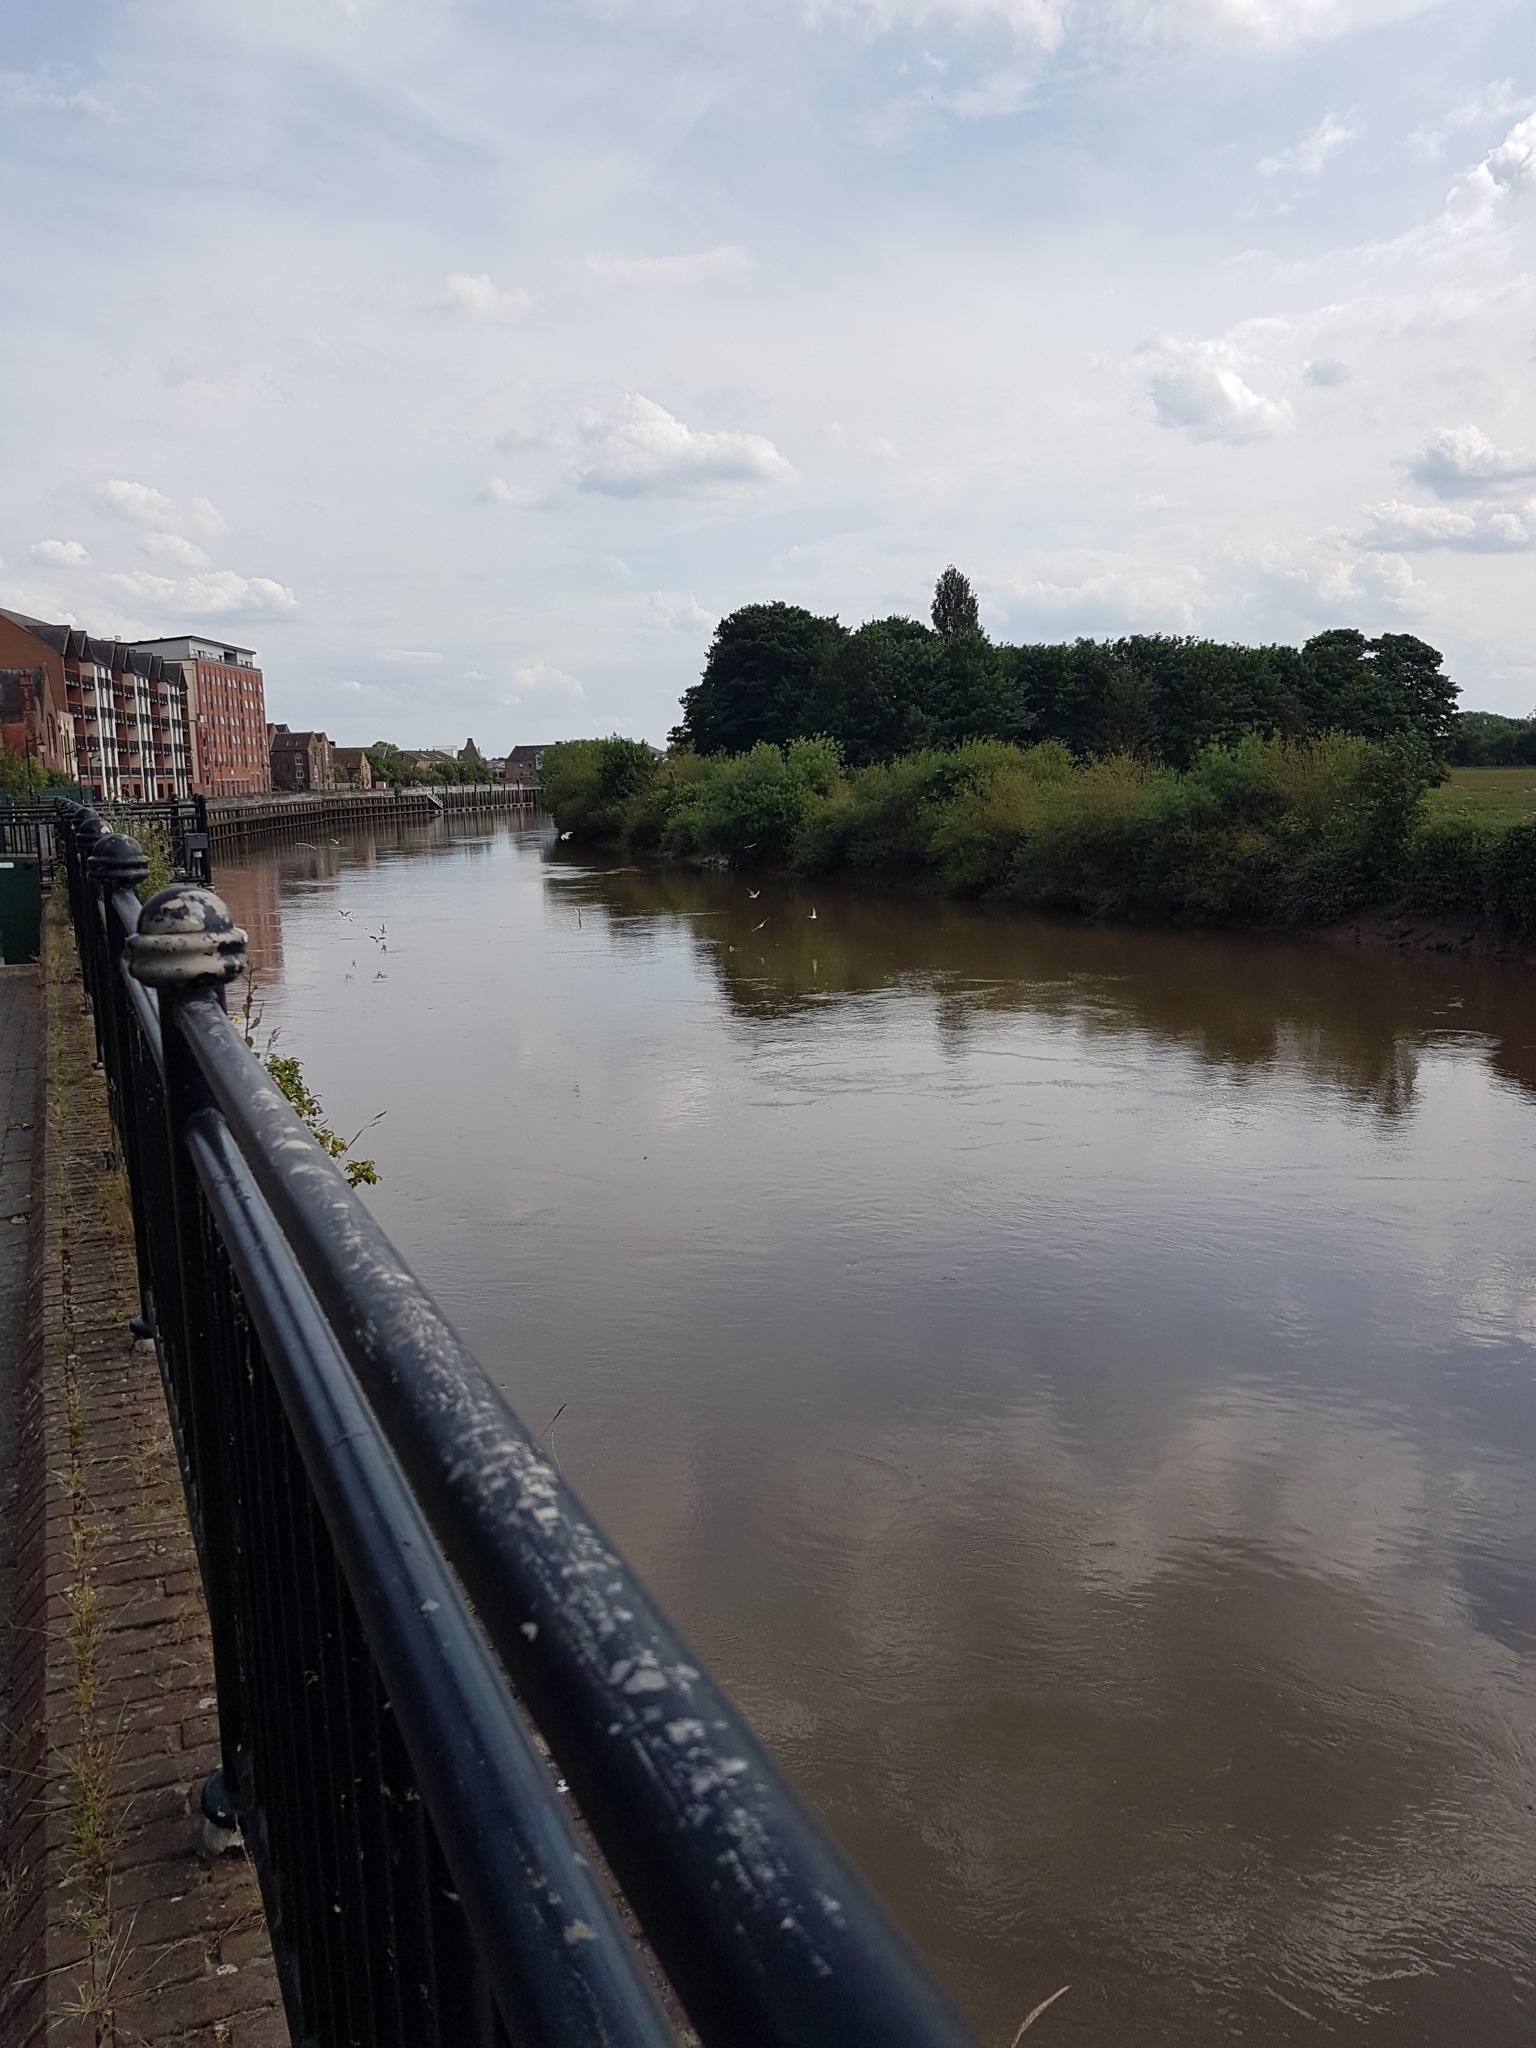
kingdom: Animalia
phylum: Chordata
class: Aves
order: Charadriiformes
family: Laridae
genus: Chroicocephalus
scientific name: Chroicocephalus ridibundus
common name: Black-headed gull
